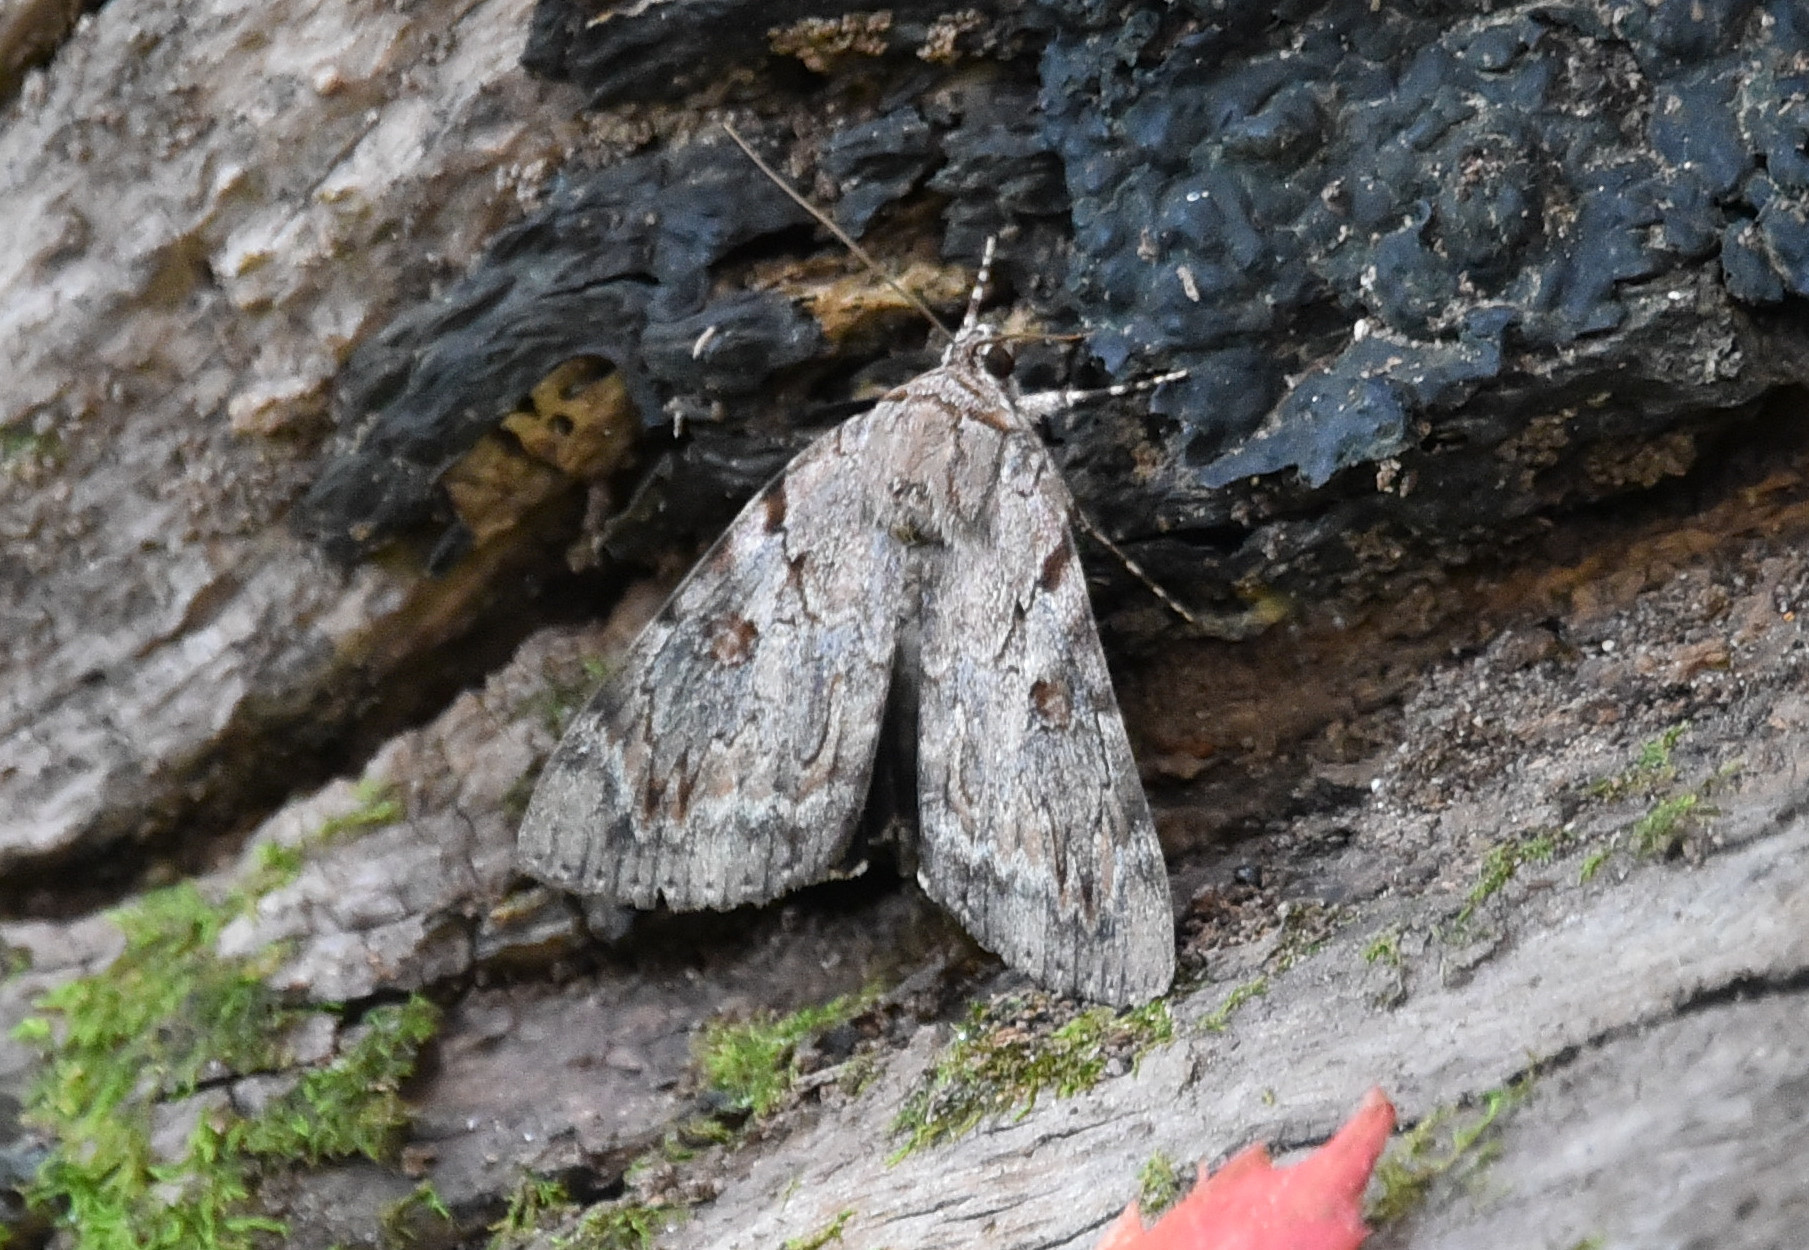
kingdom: Animalia
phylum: Arthropoda
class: Insecta
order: Lepidoptera
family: Erebidae
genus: Catocala
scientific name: Catocala agrippina
